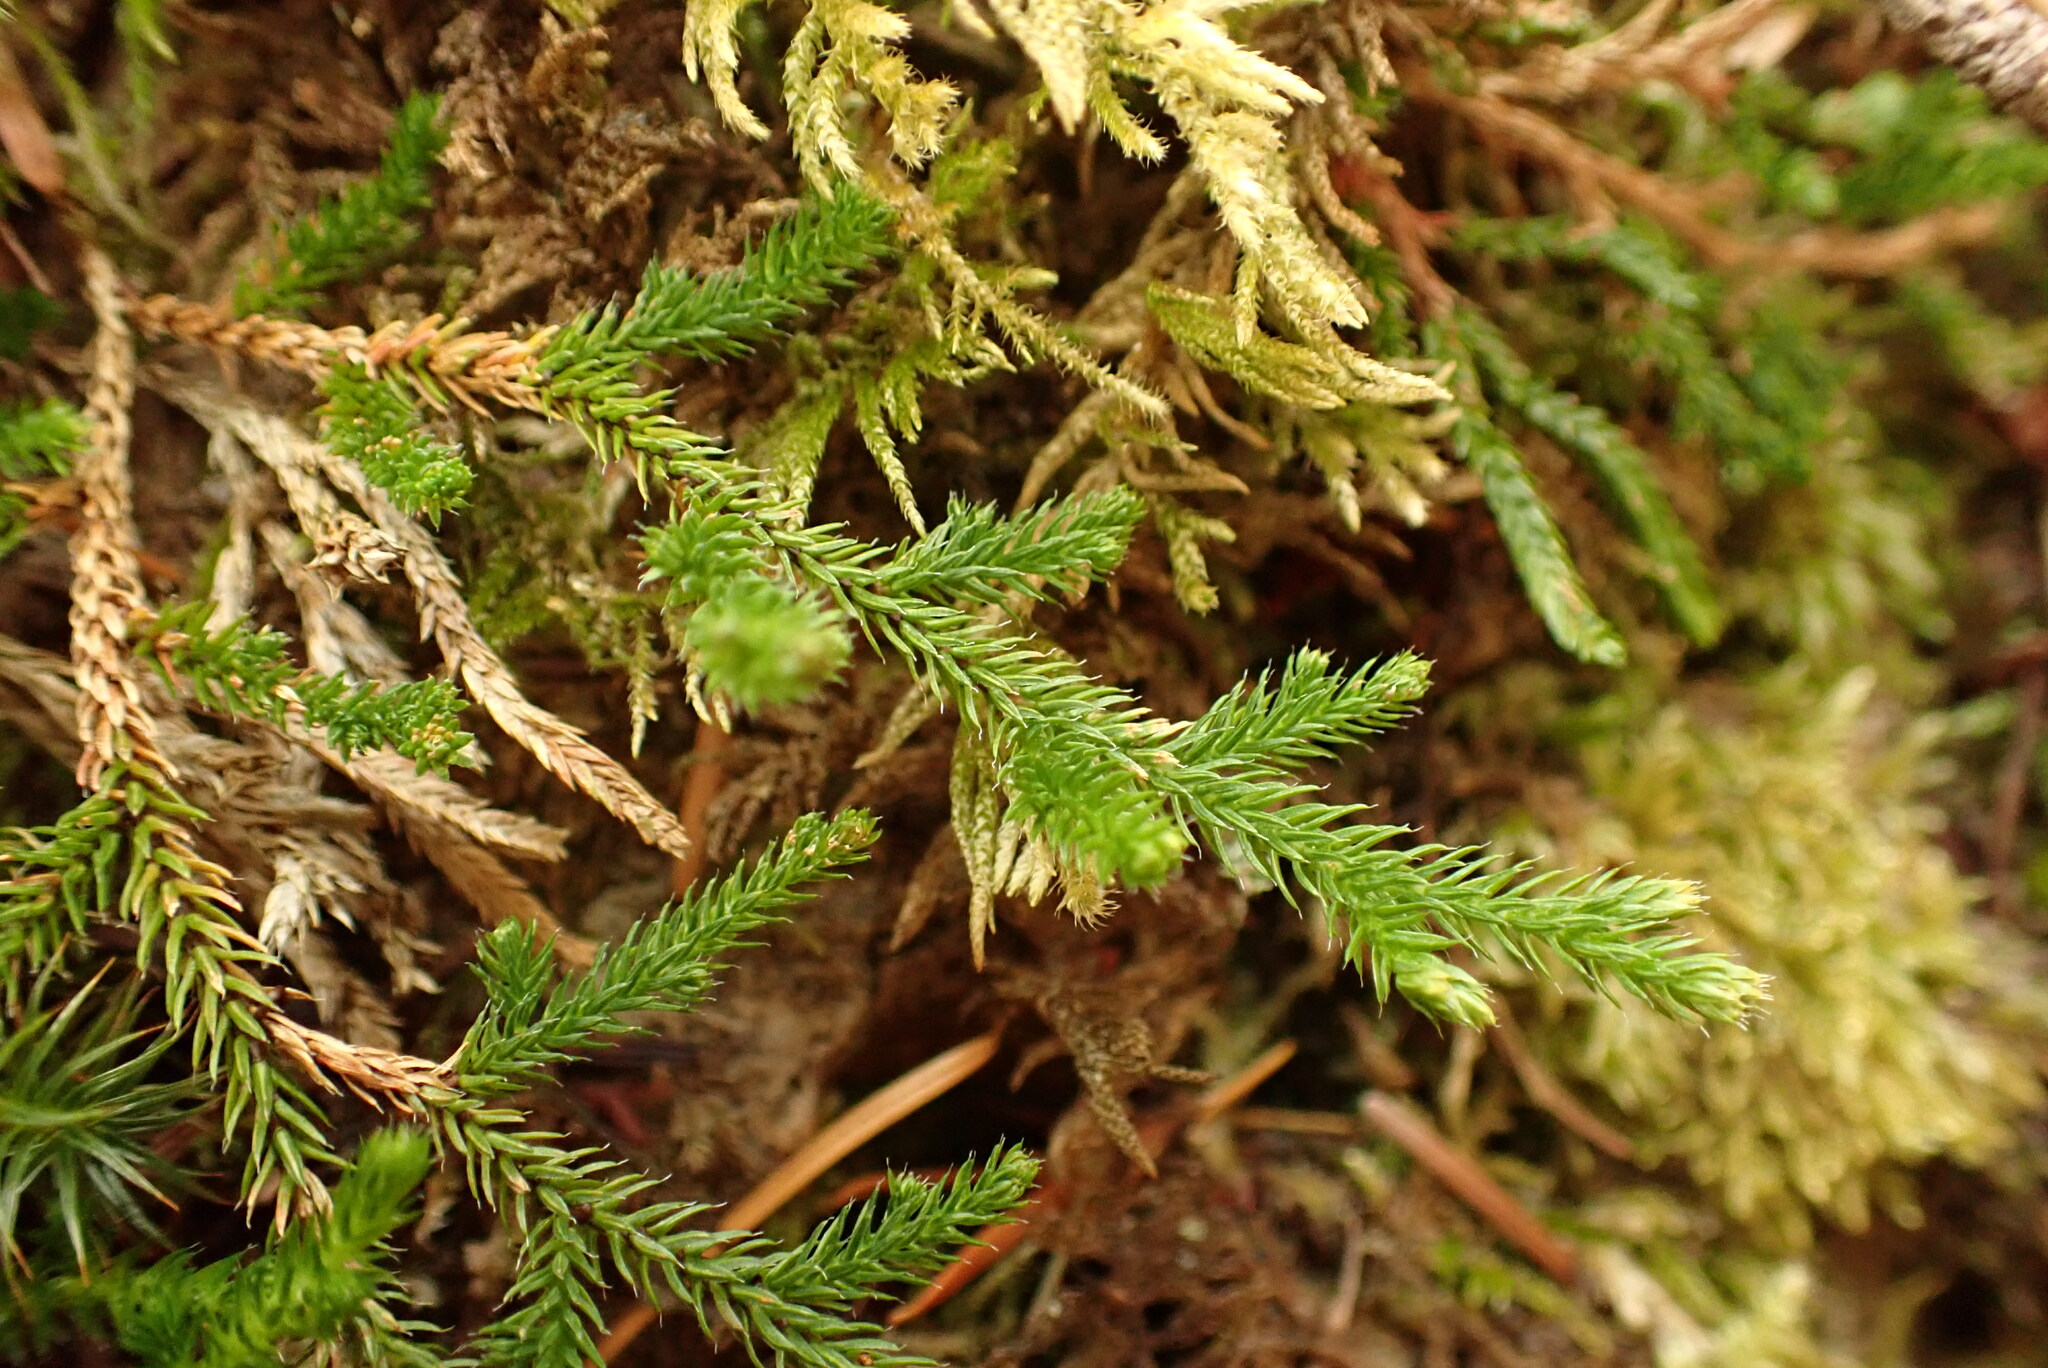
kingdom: Plantae
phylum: Tracheophyta
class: Lycopodiopsida
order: Selaginellales
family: Selaginellaceae
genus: Selaginella
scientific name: Selaginella wallacei
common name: Wallace's selaginella
